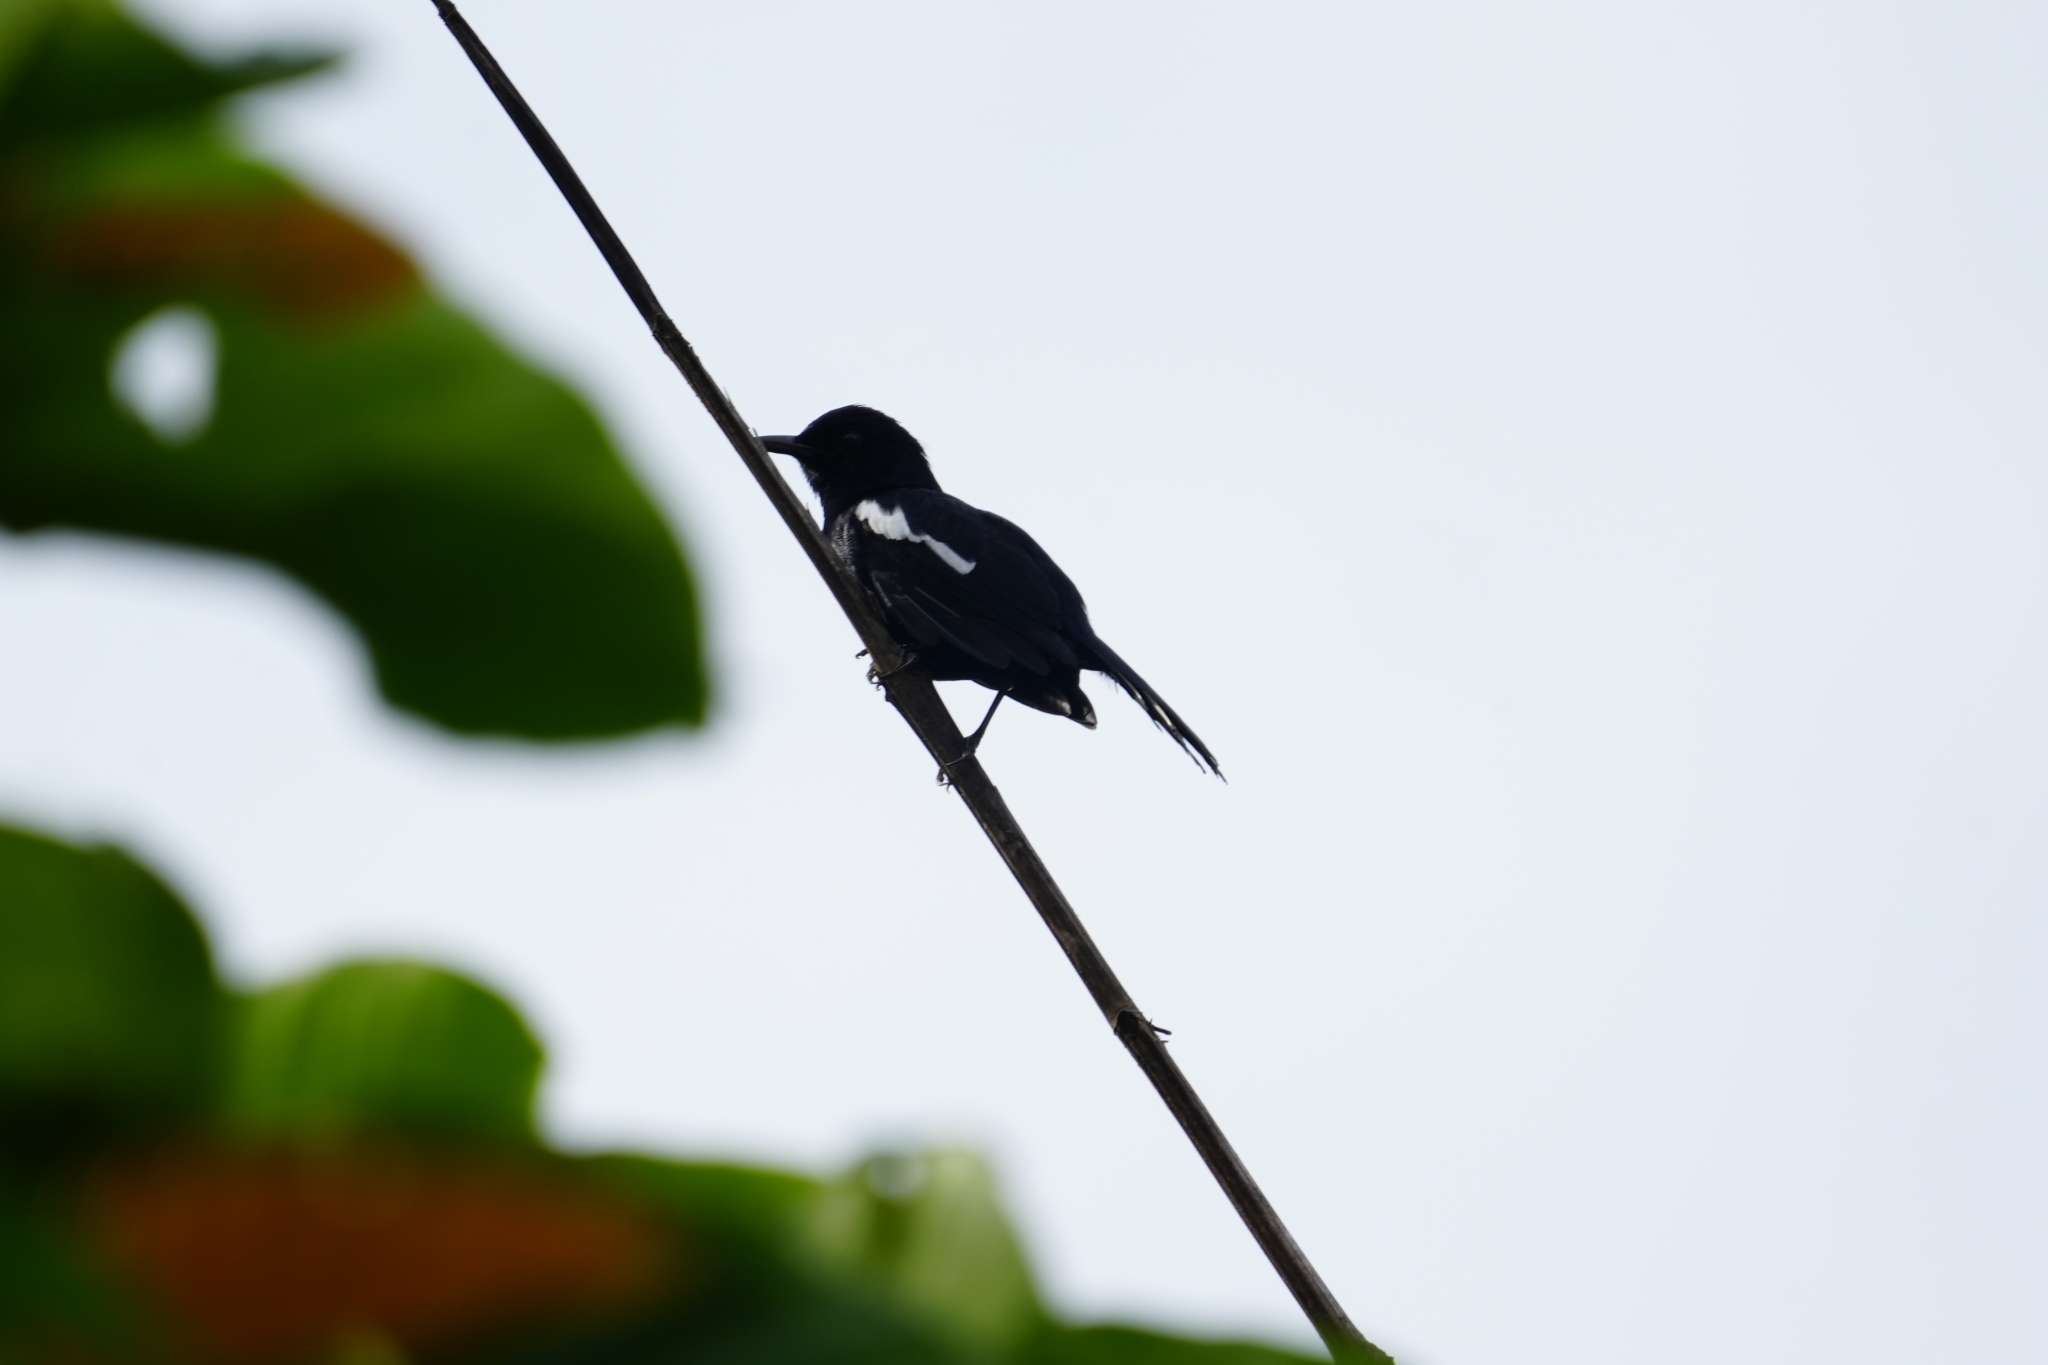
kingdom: Animalia
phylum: Chordata
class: Aves
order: Passeriformes
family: Muscicapidae
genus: Copsychus
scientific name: Copsychus saularis
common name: Oriental magpie-robin
